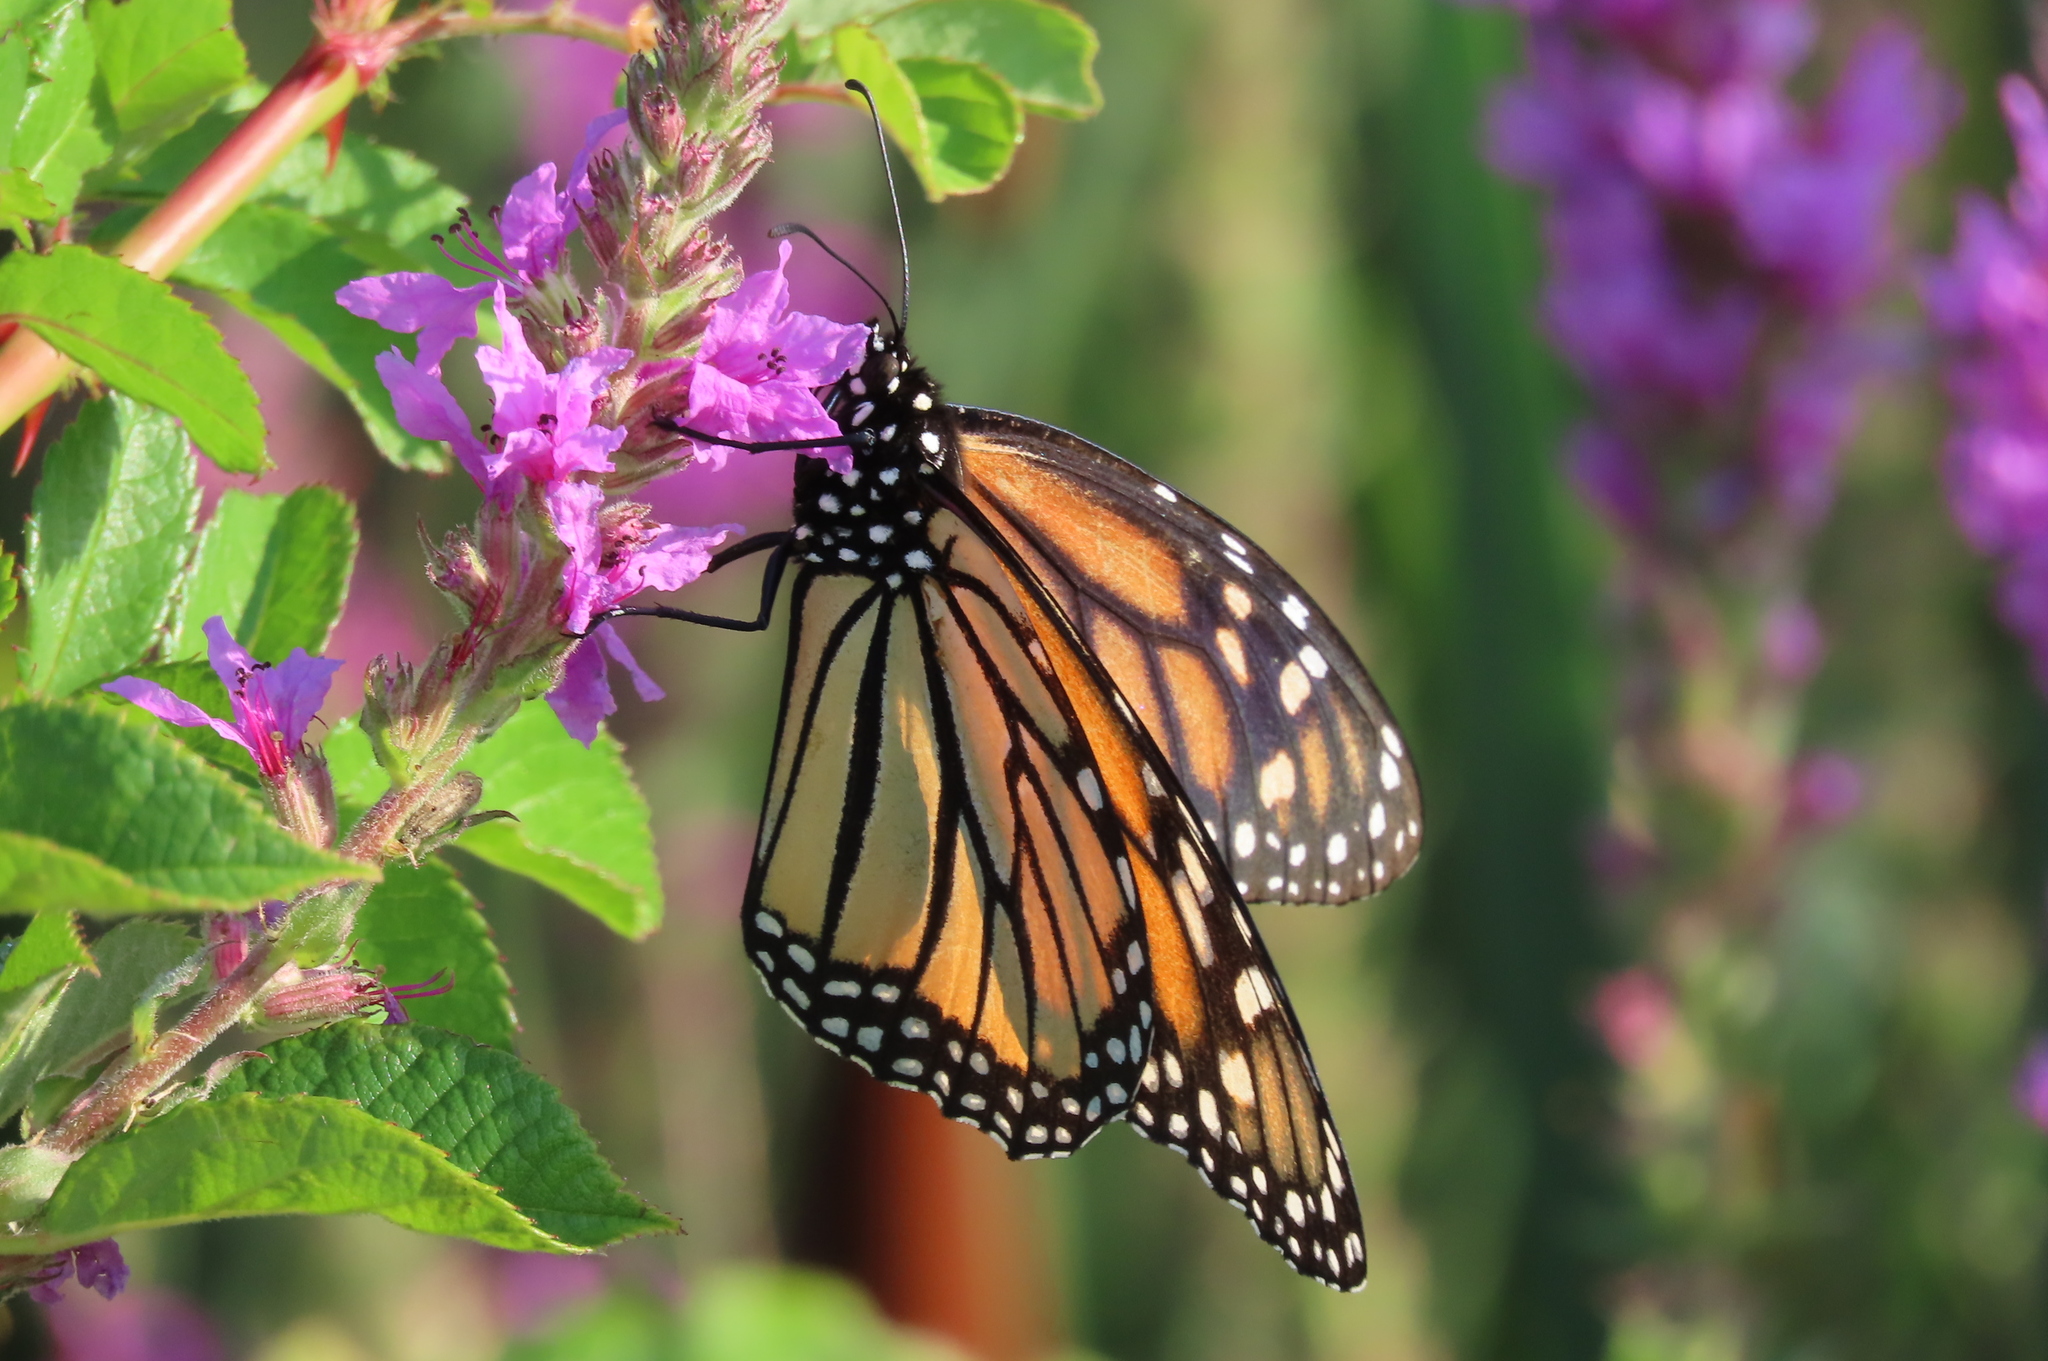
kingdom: Animalia
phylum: Arthropoda
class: Insecta
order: Lepidoptera
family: Nymphalidae
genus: Danaus
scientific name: Danaus plexippus
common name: Monarch
